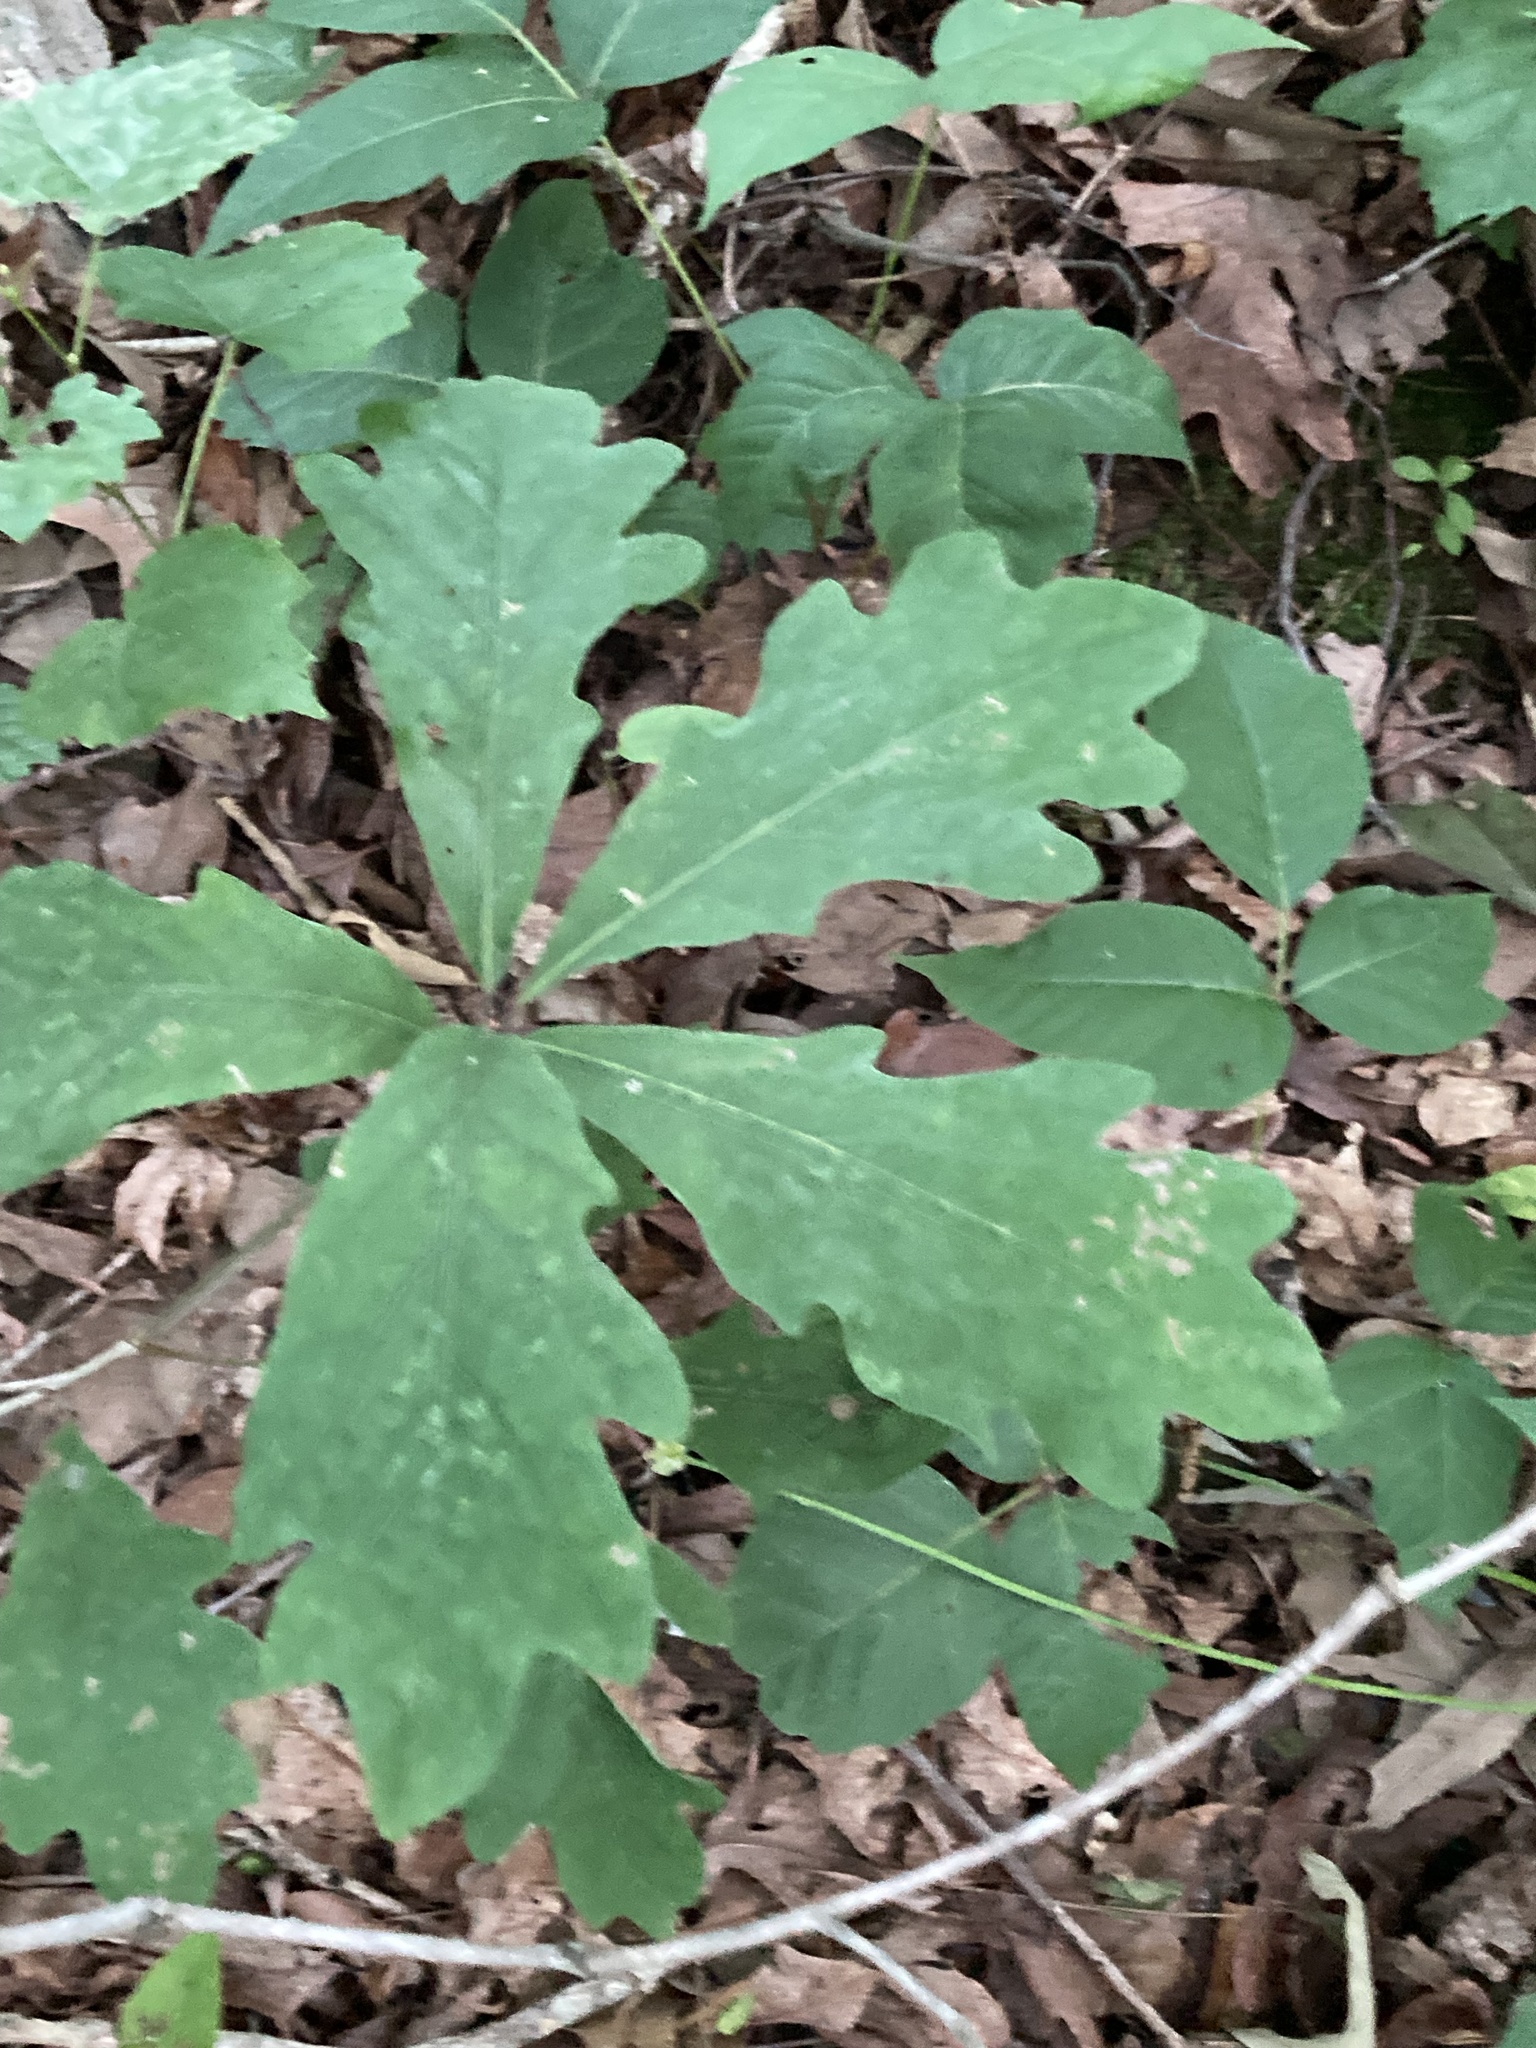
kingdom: Plantae
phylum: Tracheophyta
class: Magnoliopsida
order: Fagales
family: Fagaceae
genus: Quercus
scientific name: Quercus alba
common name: White oak
